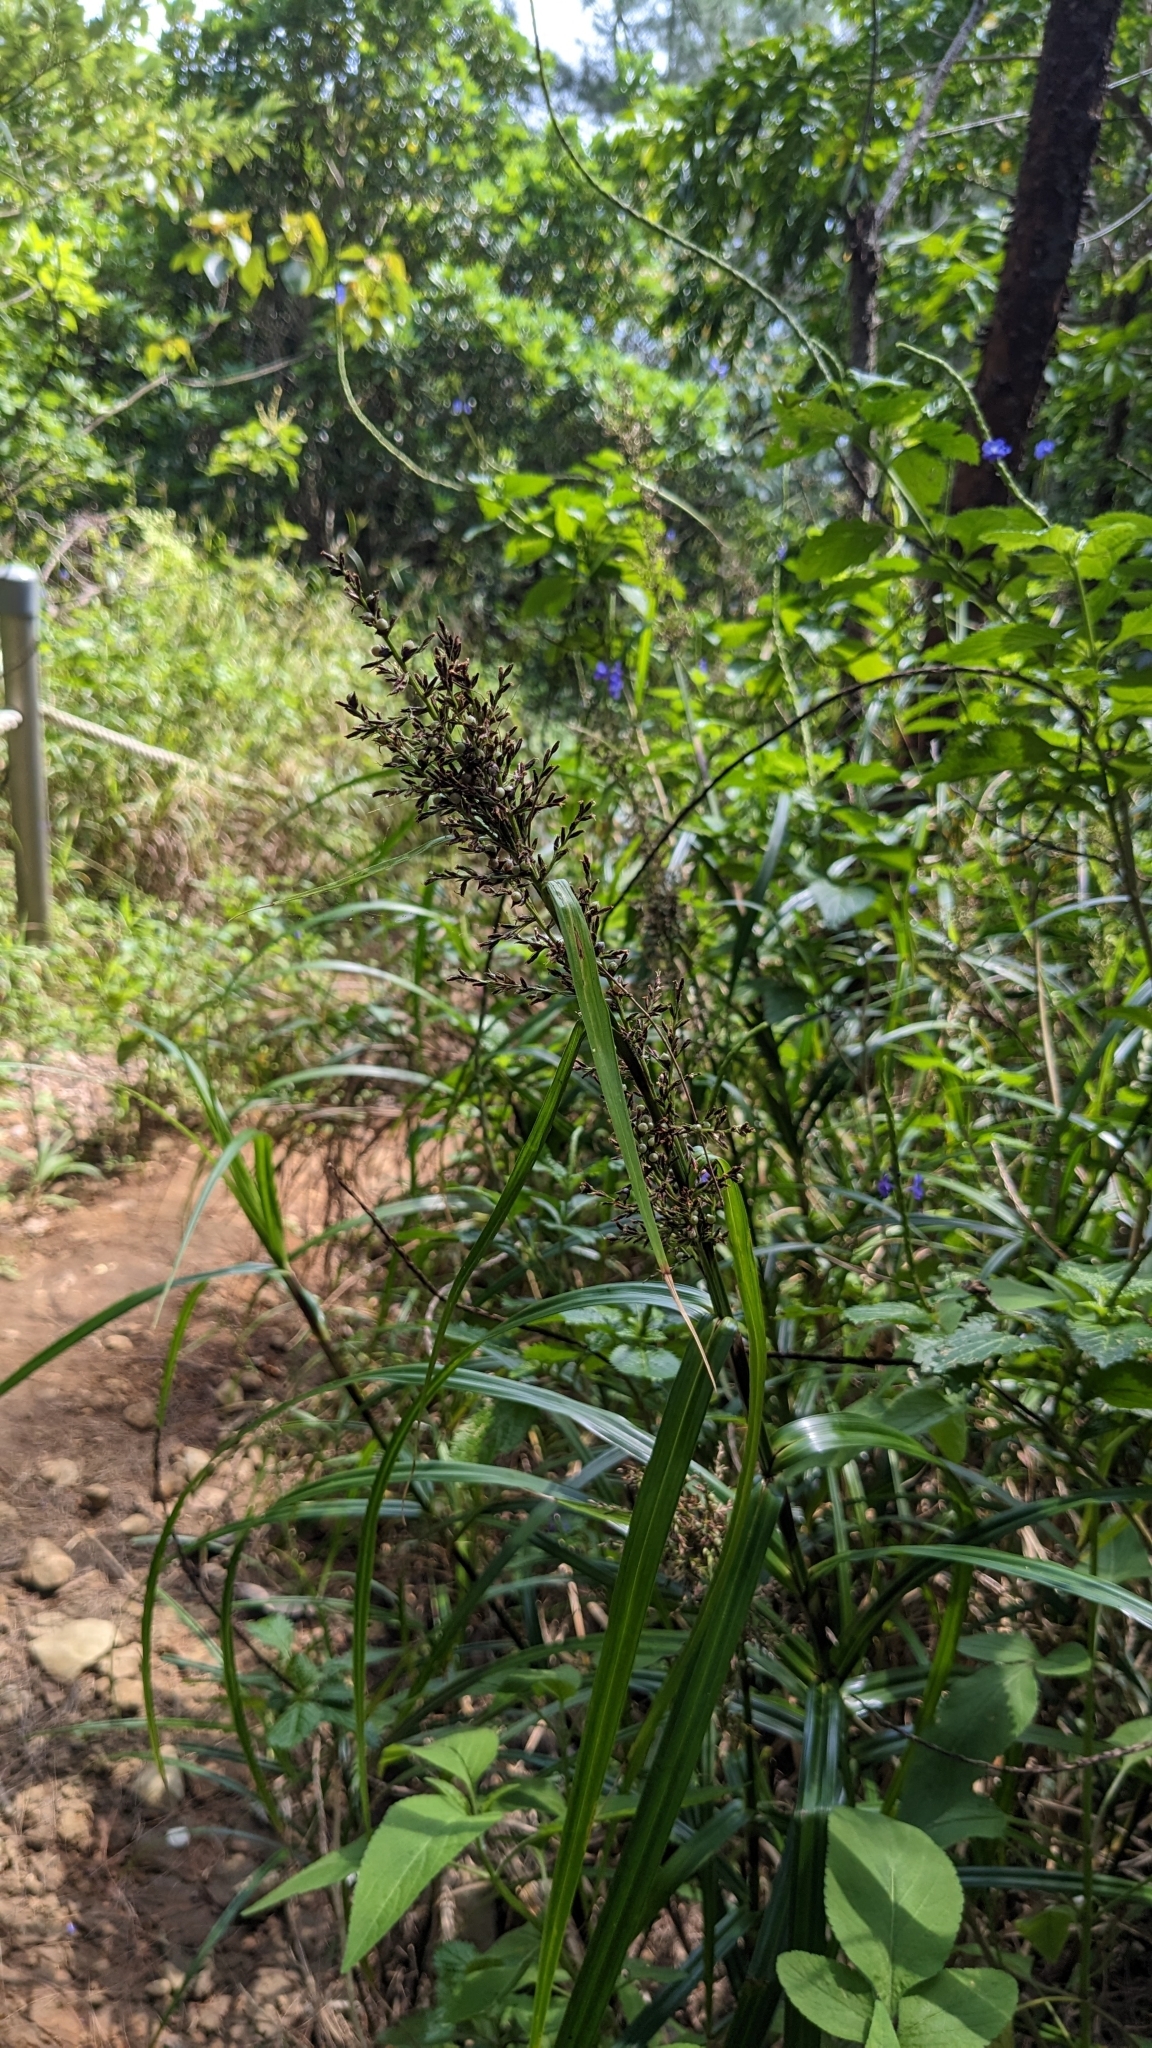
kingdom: Plantae
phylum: Tracheophyta
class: Liliopsida
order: Poales
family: Cyperaceae
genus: Scleria
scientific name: Scleria scrobiculata
